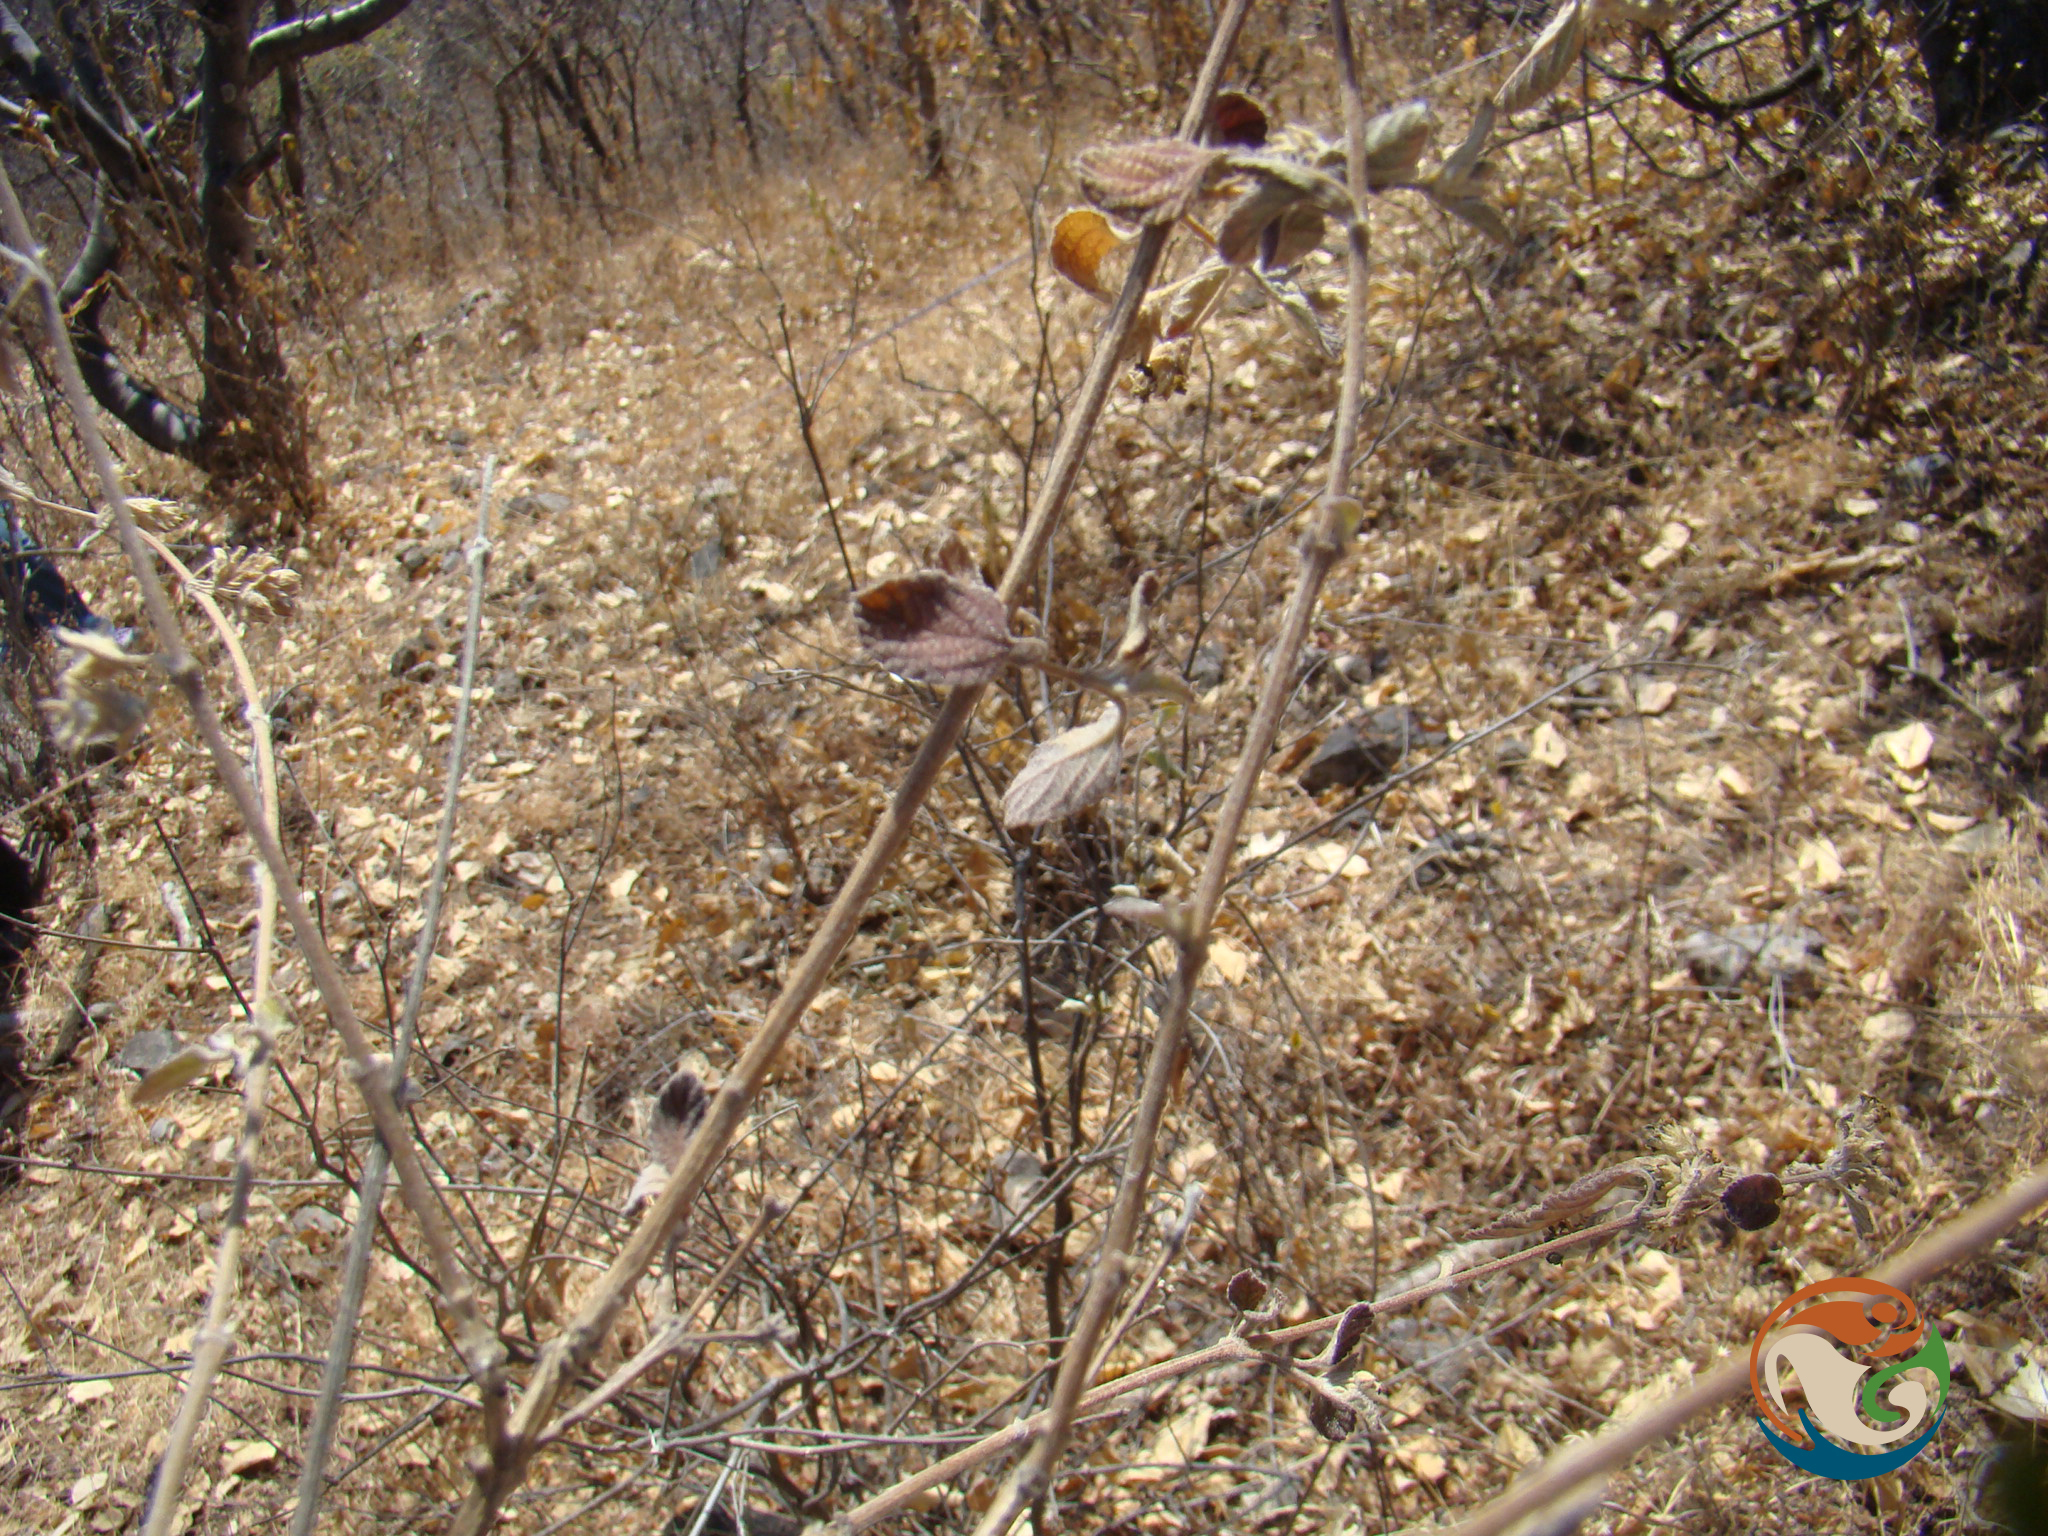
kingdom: Plantae
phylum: Tracheophyta
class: Magnoliopsida
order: Lamiales
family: Verbenaceae
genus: Lippia
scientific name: Lippia origanoides
